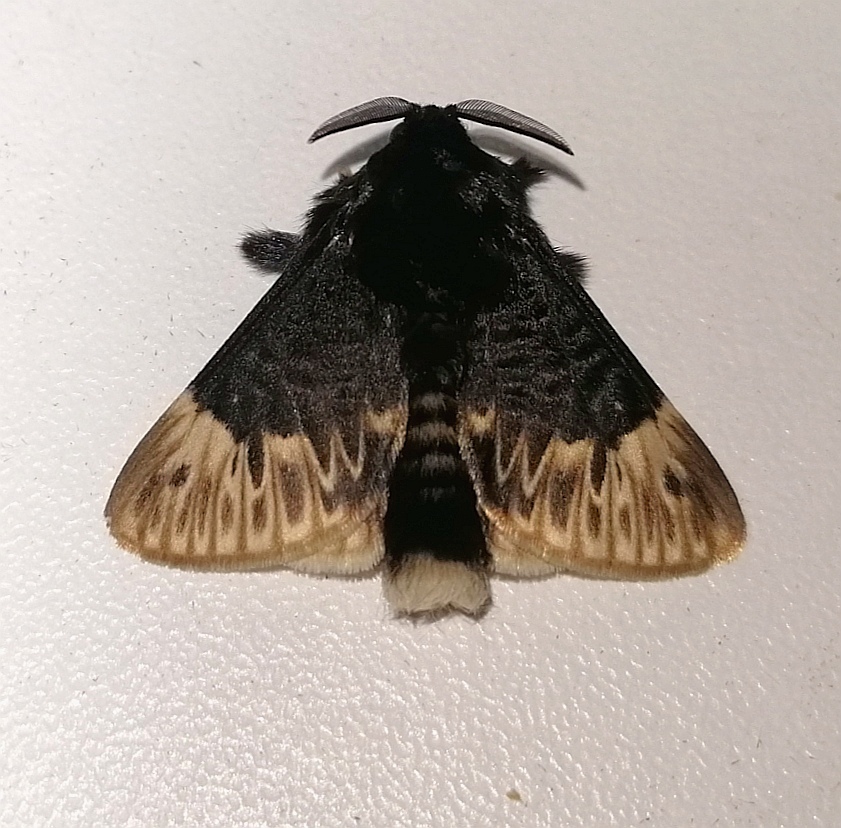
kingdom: Animalia
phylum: Arthropoda
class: Insecta
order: Lepidoptera
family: Megalopygidae
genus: Podalia
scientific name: Podalia thanatos
